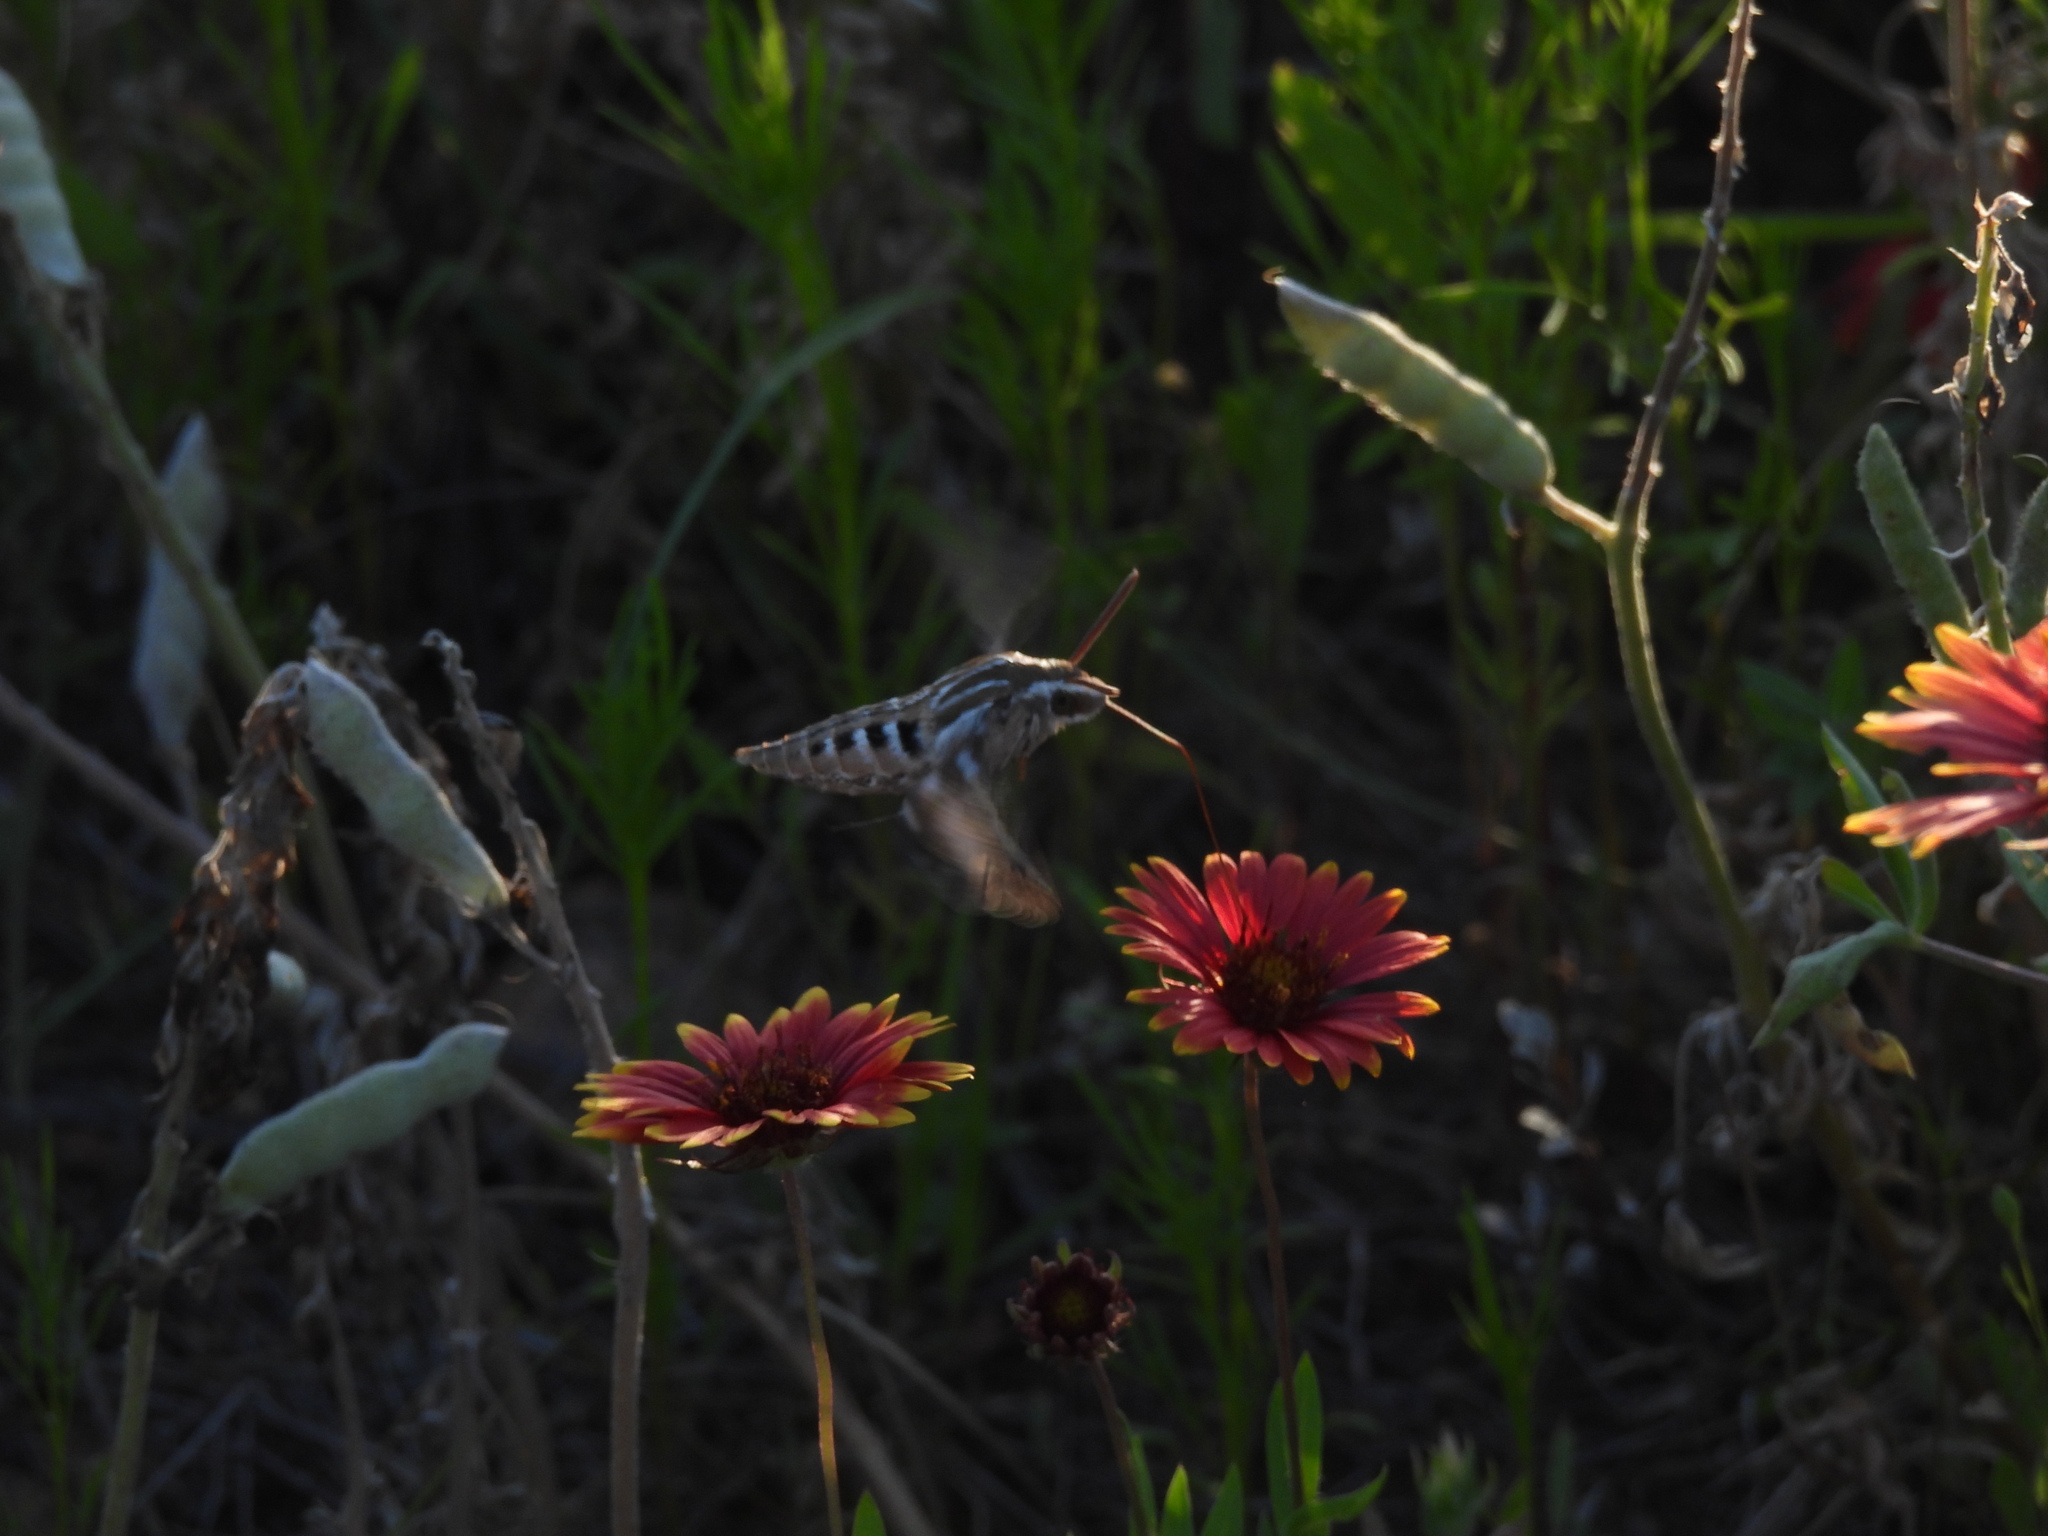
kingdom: Animalia
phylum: Arthropoda
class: Insecta
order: Lepidoptera
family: Sphingidae
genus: Hyles
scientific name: Hyles lineata
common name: White-lined sphinx
